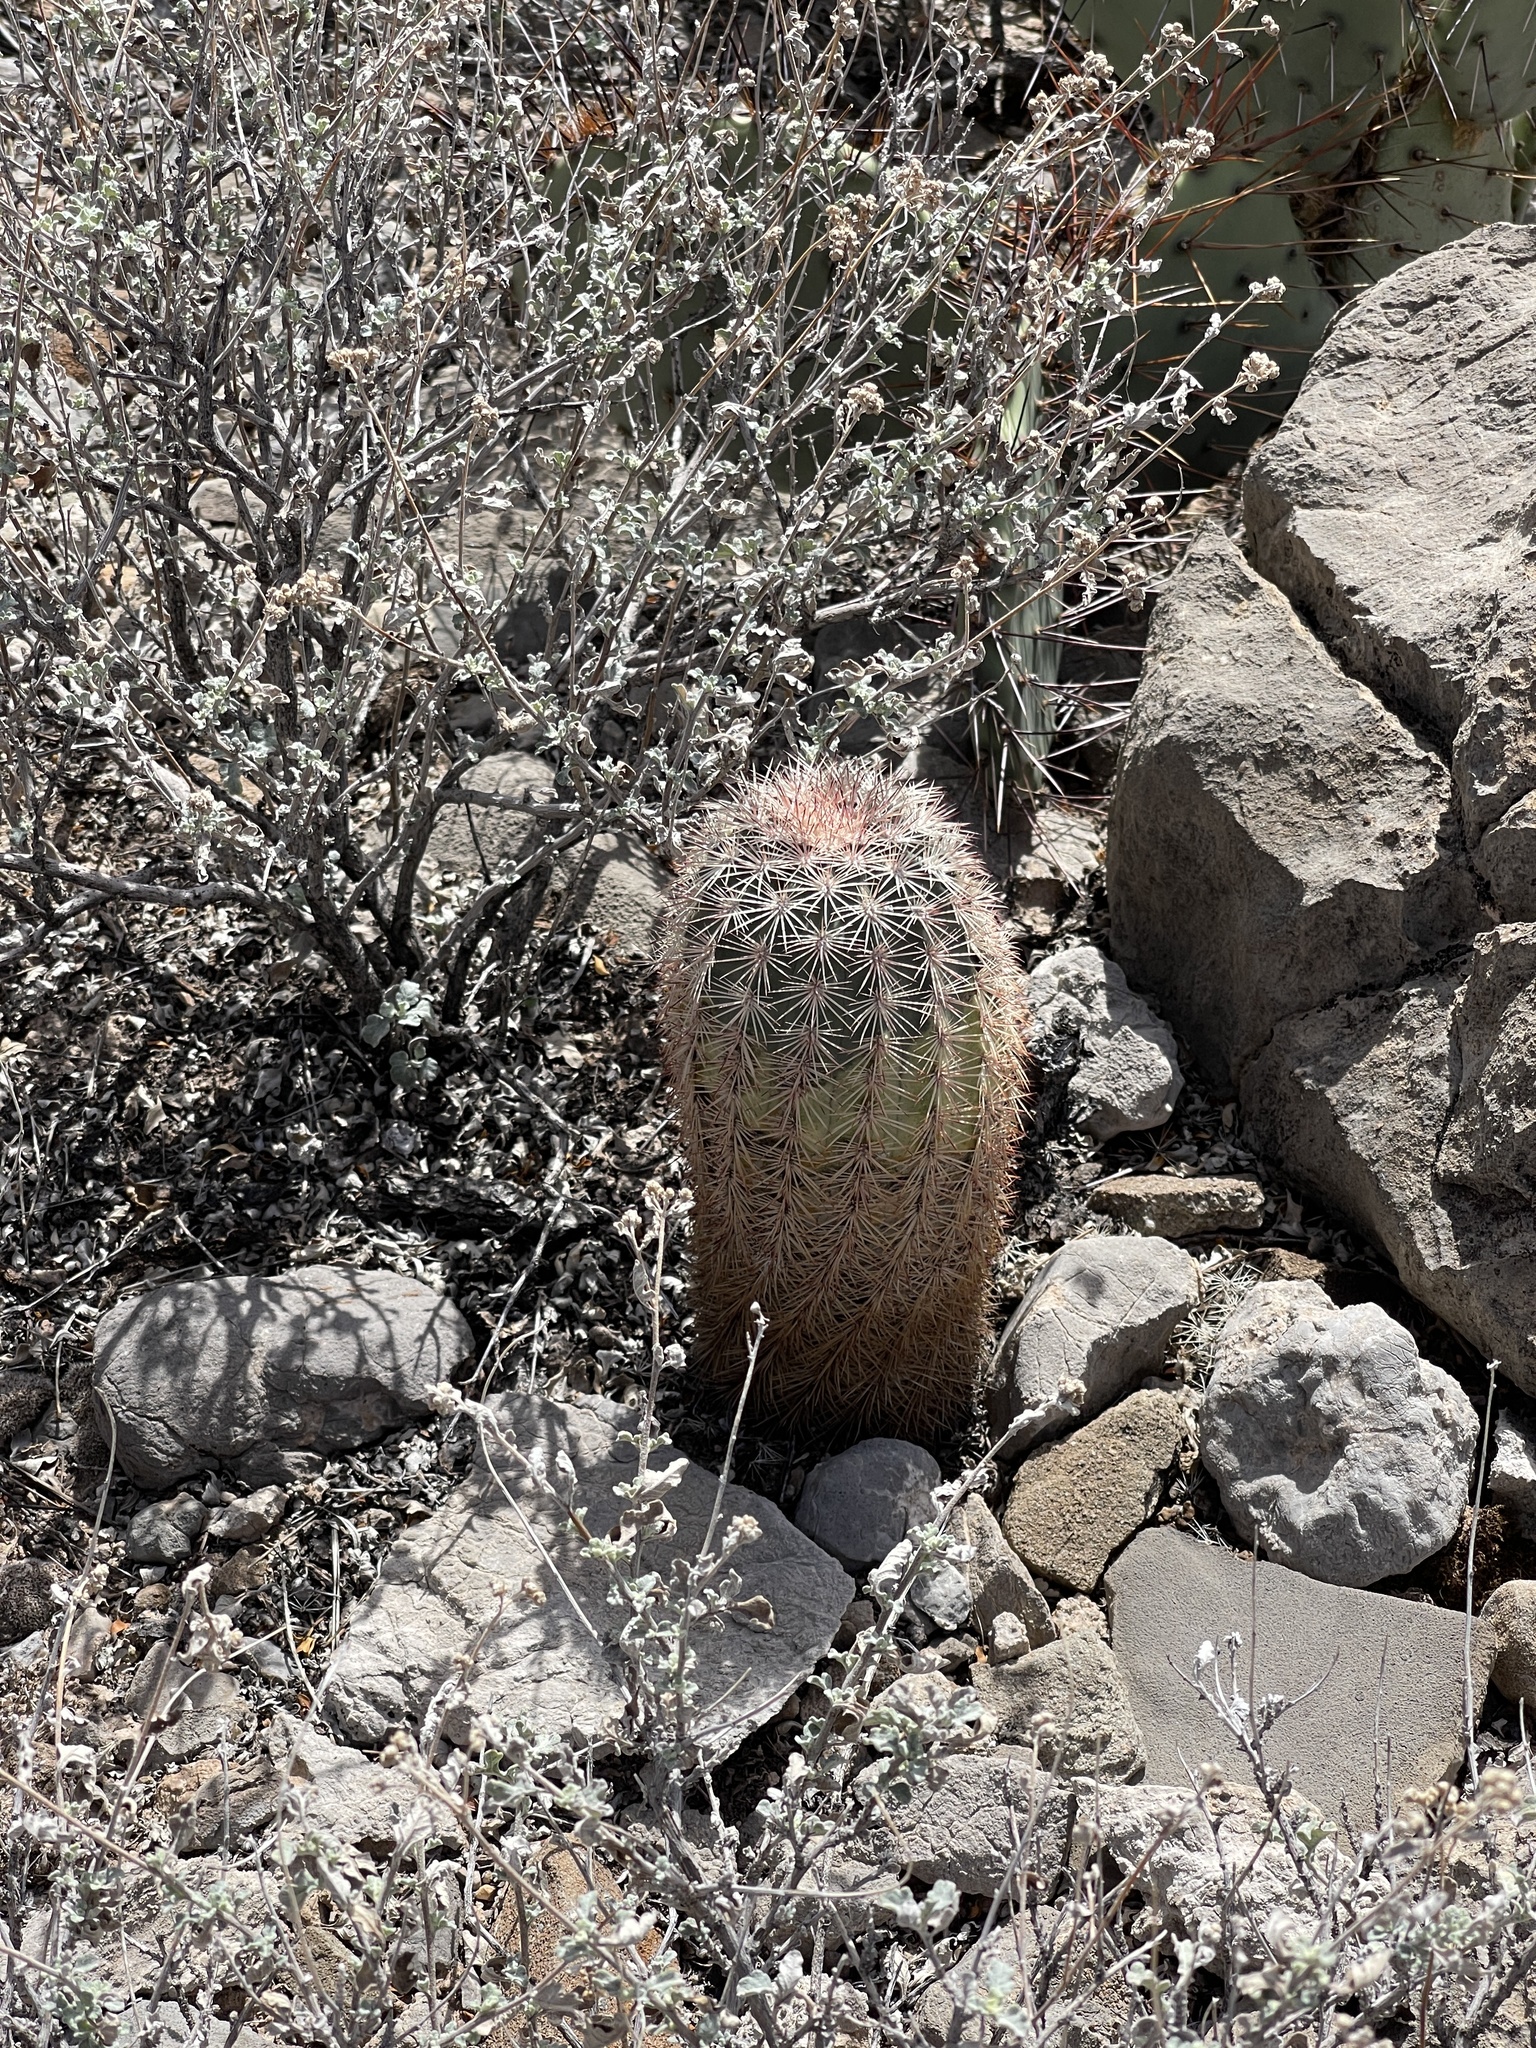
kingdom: Plantae
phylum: Tracheophyta
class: Magnoliopsida
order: Caryophyllales
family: Cactaceae
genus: Echinocereus
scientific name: Echinocereus dasyacanthus
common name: Spiny hedgehog cactus
